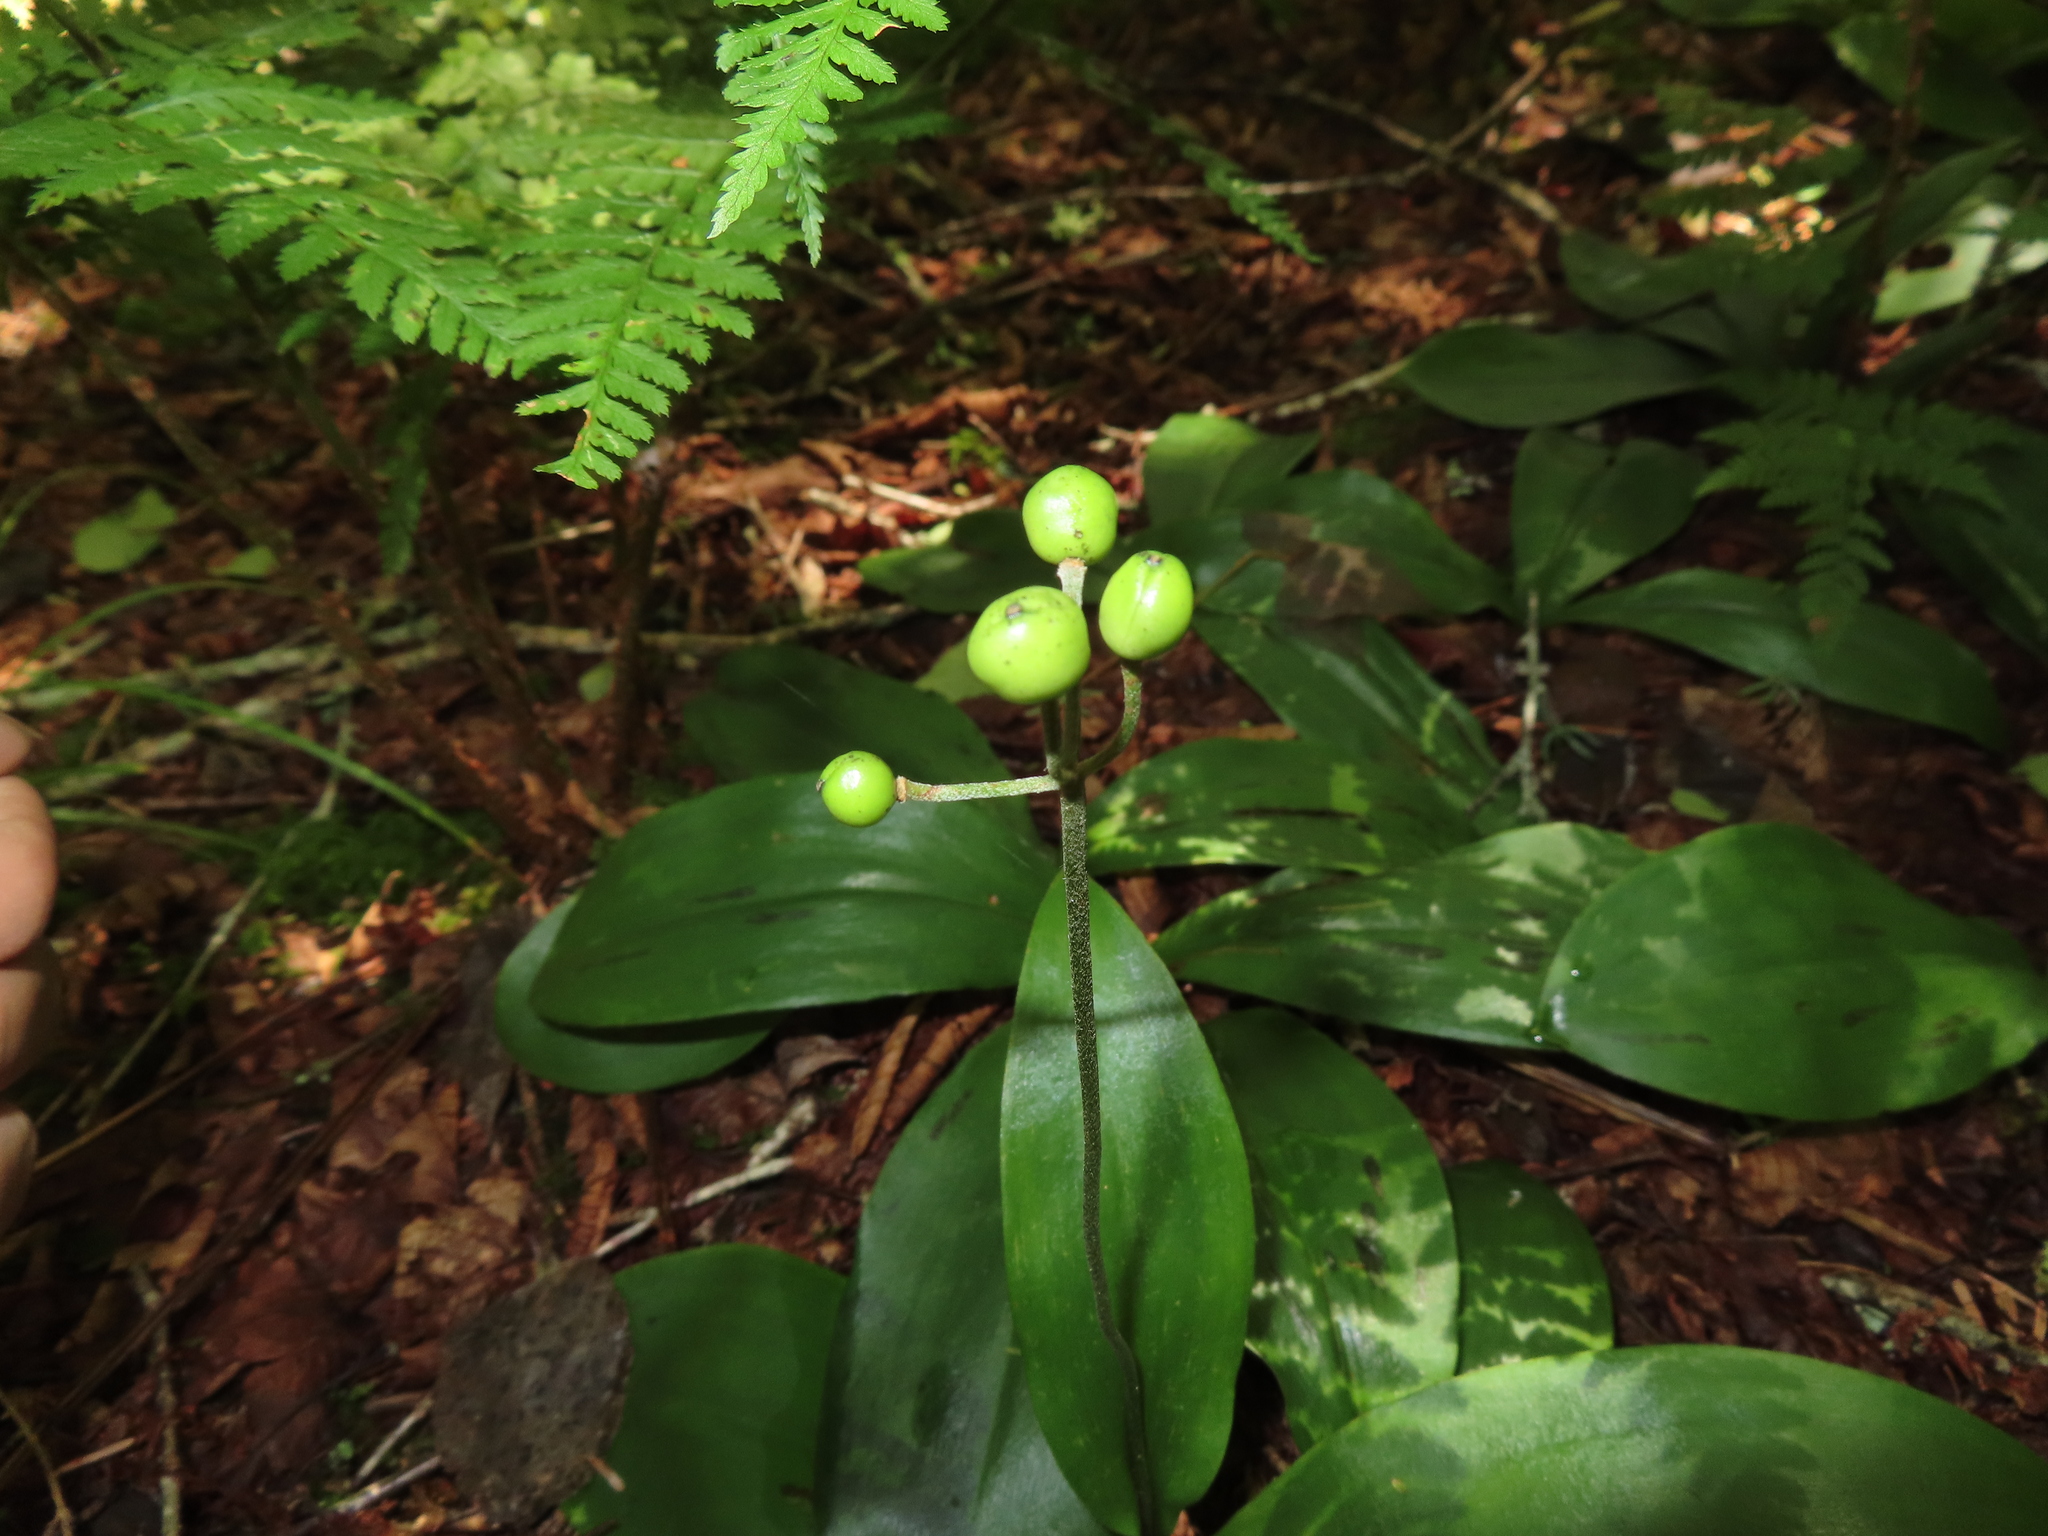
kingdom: Plantae
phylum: Tracheophyta
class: Liliopsida
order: Liliales
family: Liliaceae
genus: Clintonia
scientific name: Clintonia borealis
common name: Yellow clintonia
